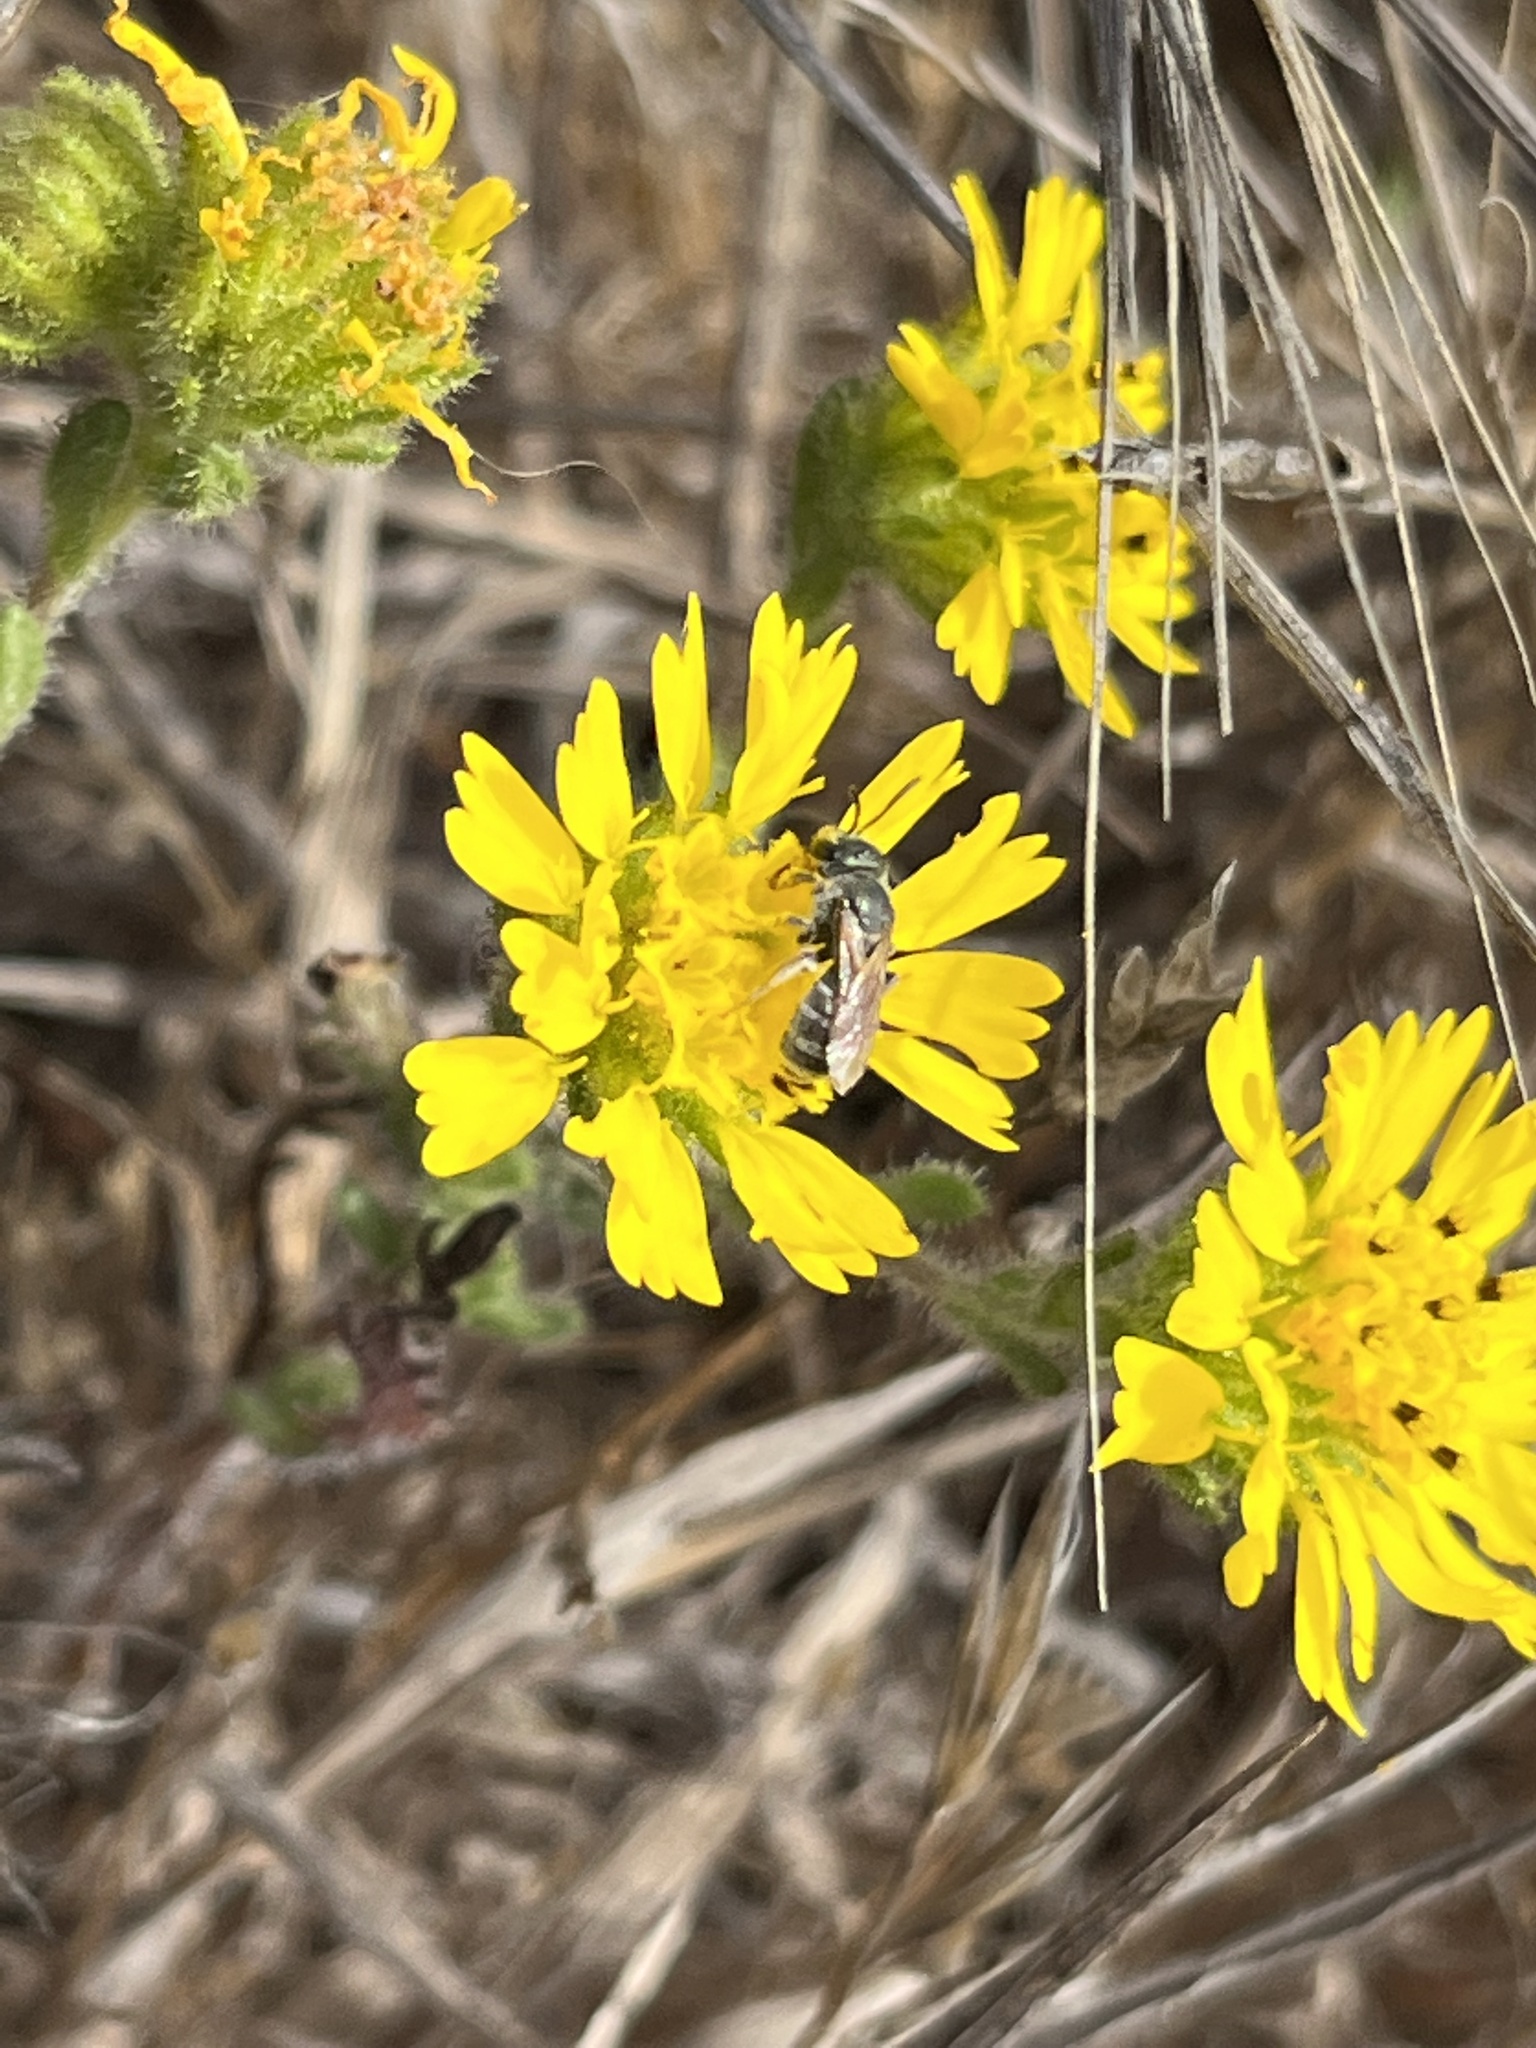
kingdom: Animalia
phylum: Arthropoda
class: Insecta
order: Hymenoptera
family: Halictidae
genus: Halictus
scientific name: Halictus tripartitus
